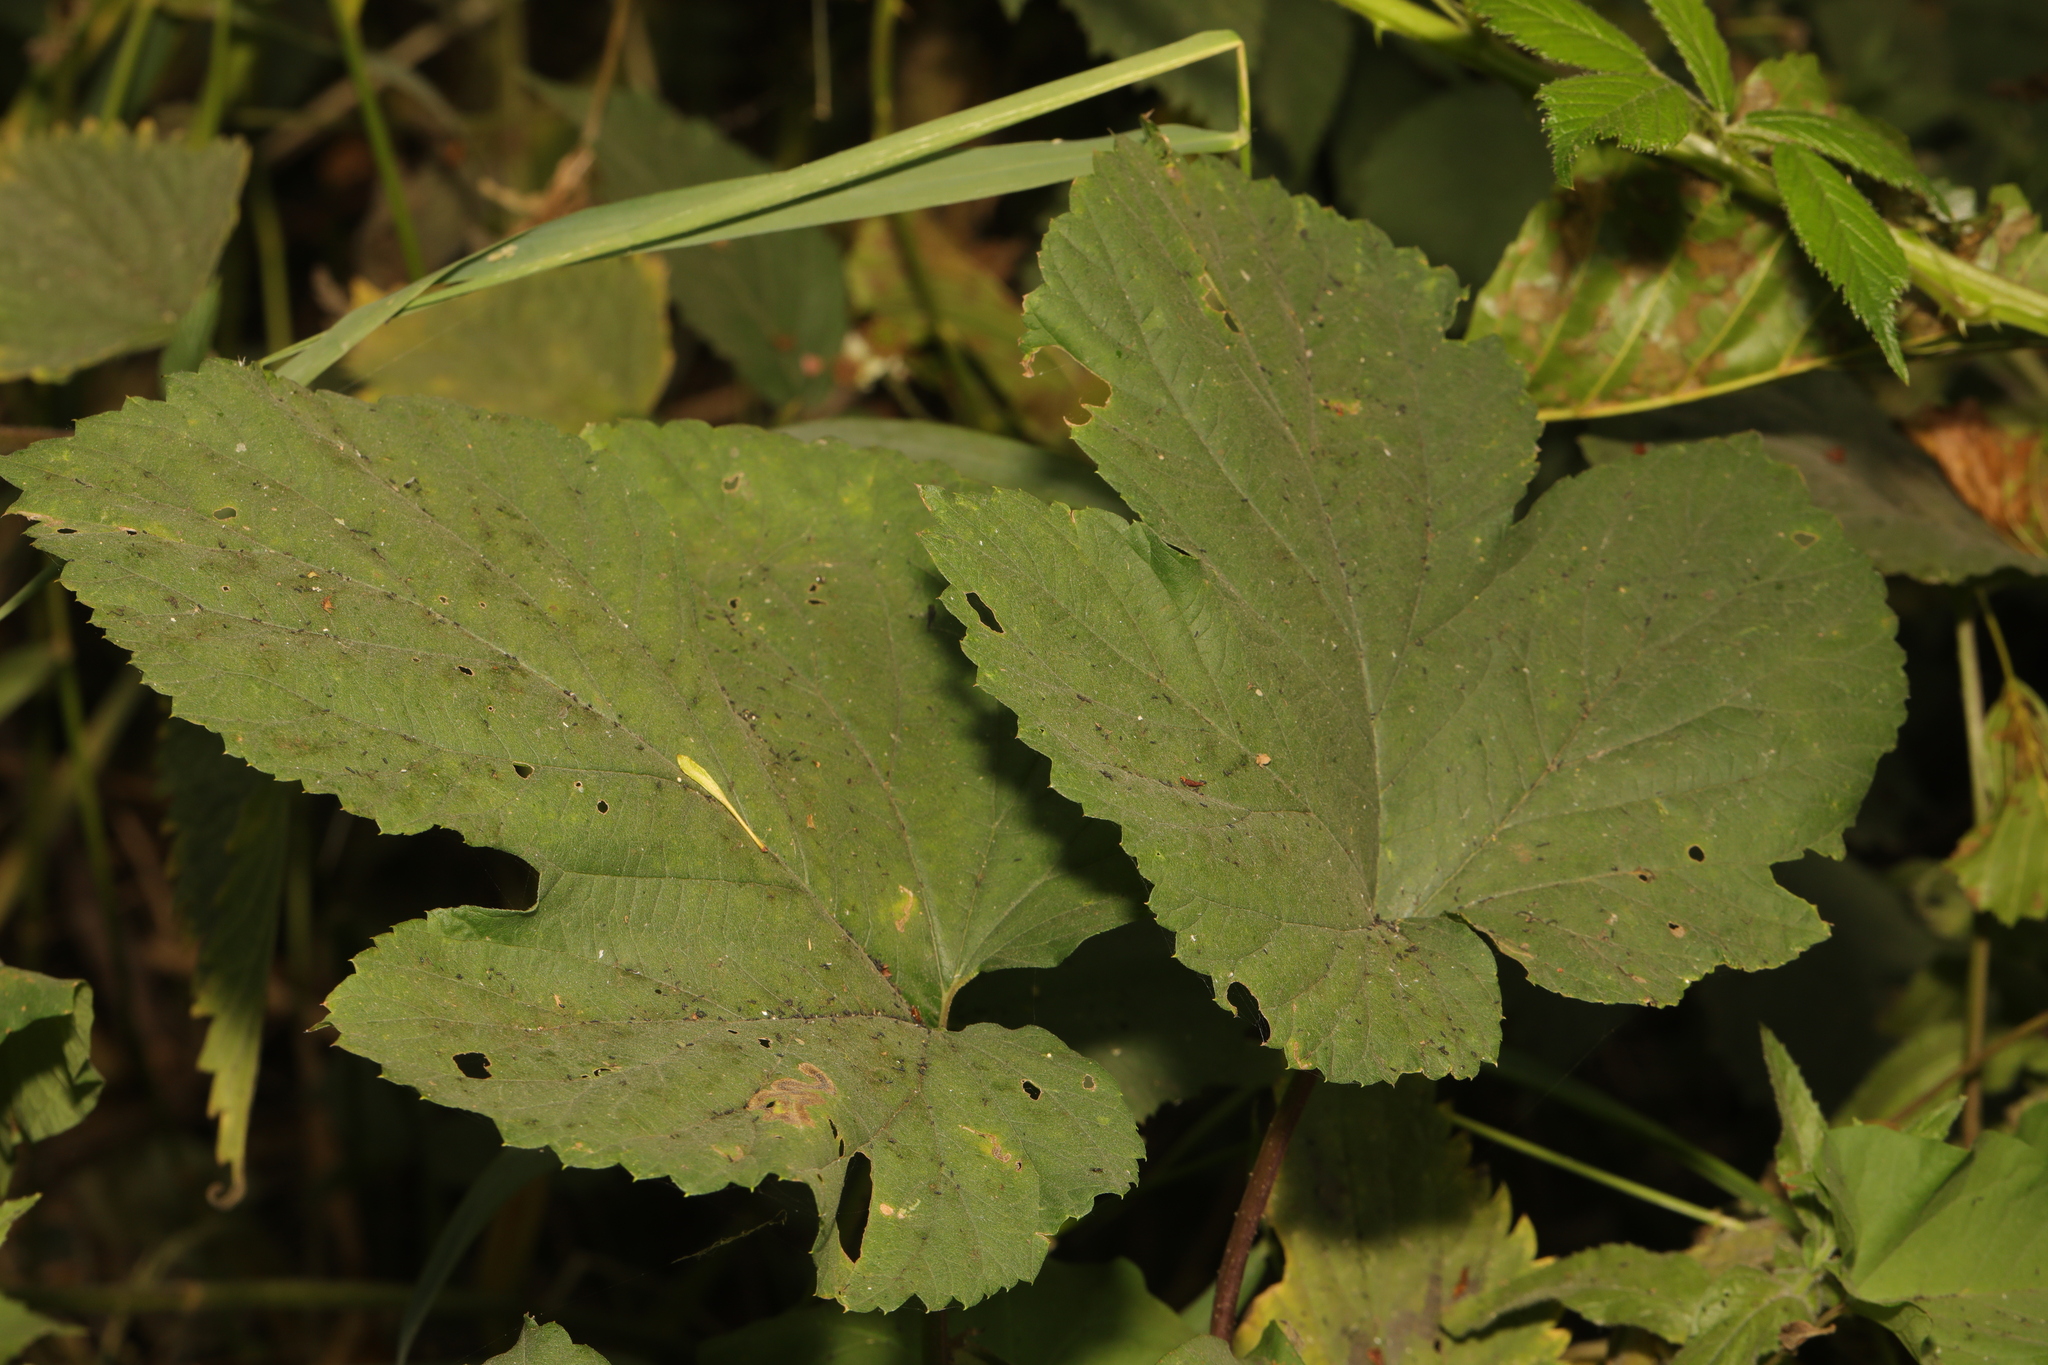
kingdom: Plantae
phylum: Tracheophyta
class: Magnoliopsida
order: Rosales
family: Cannabaceae
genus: Humulus
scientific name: Humulus lupulus
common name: Hop
